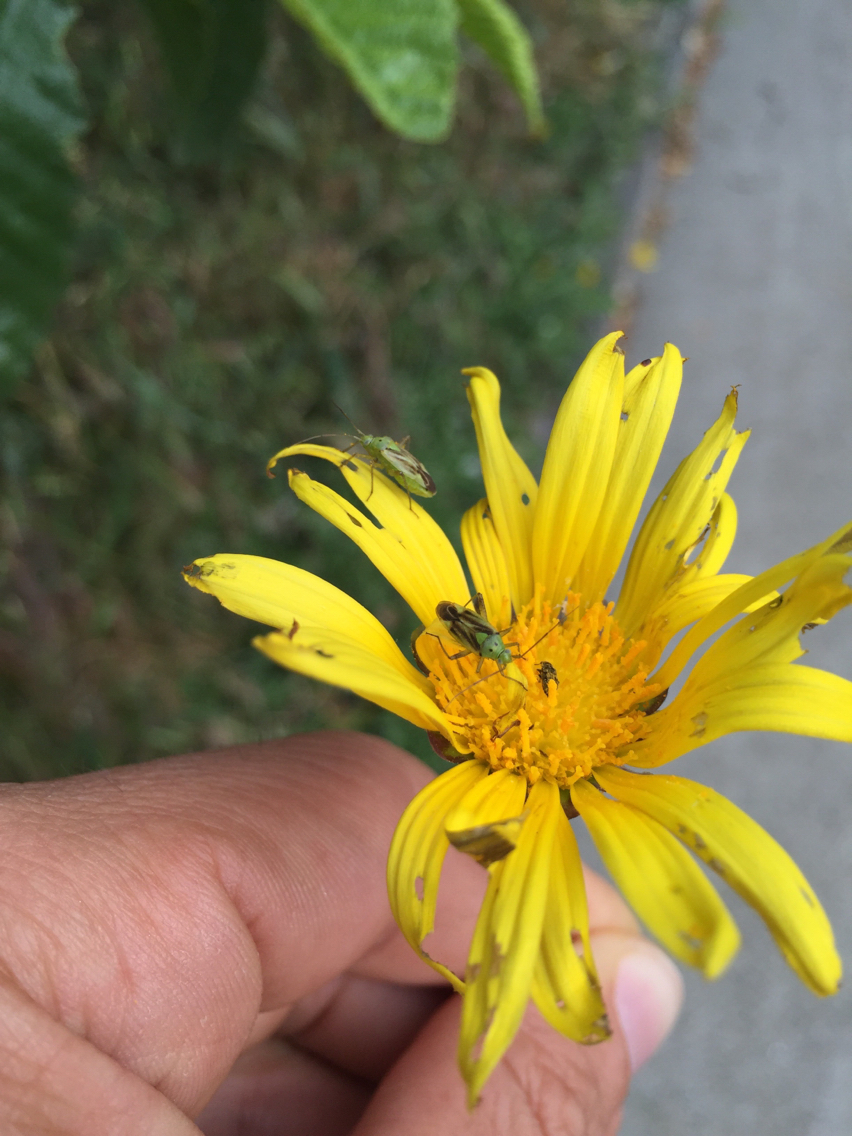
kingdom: Animalia
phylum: Arthropoda
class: Insecta
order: Hemiptera
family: Miridae
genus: Closterotomus
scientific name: Closterotomus norvegicus
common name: Plant bug
